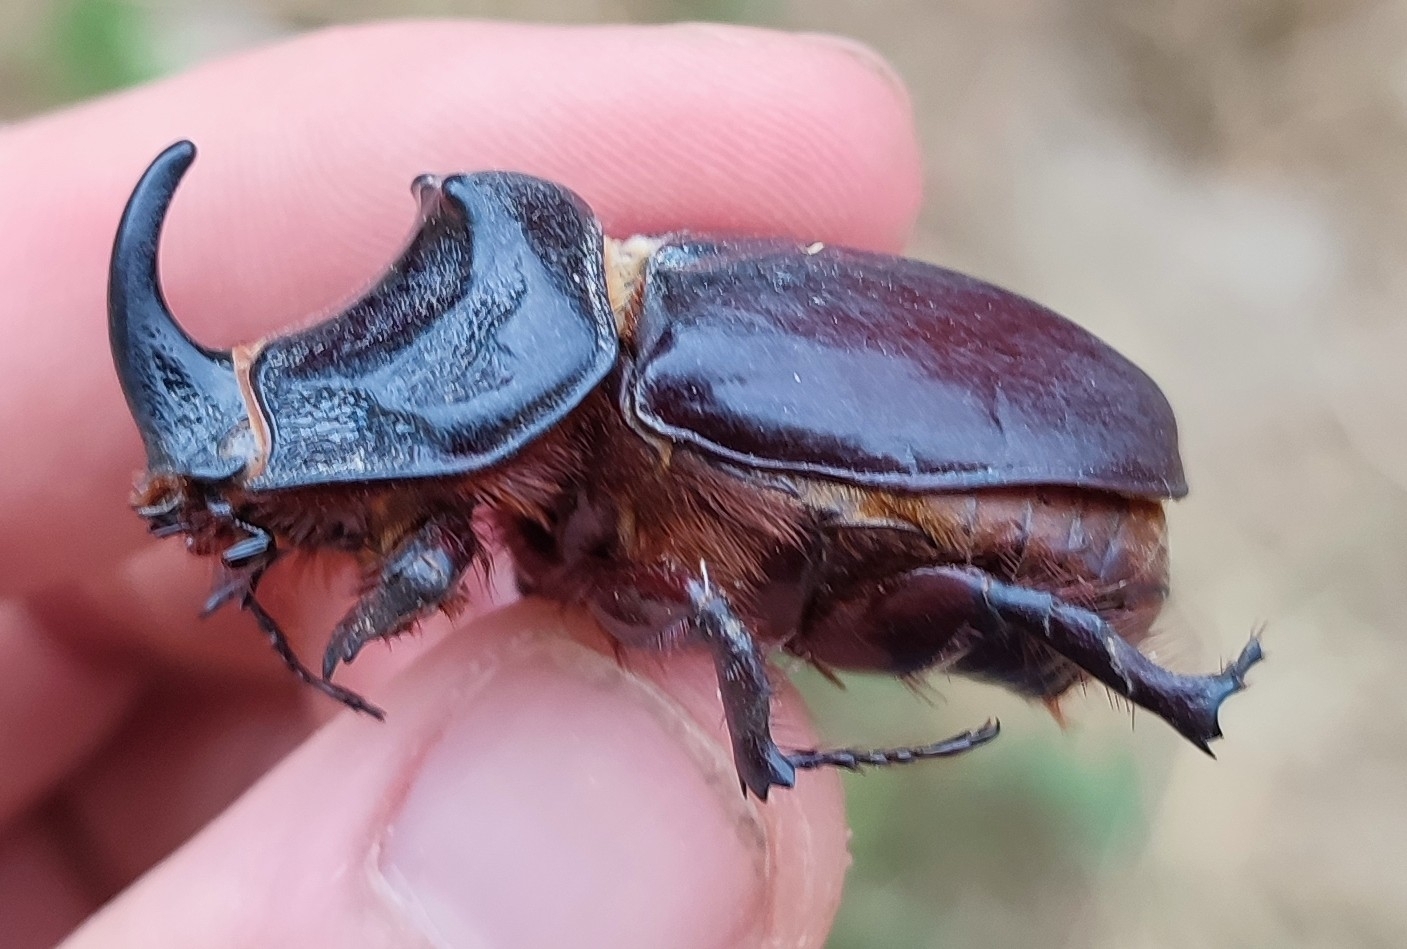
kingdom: Animalia
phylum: Arthropoda
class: Insecta
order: Coleoptera
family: Scarabaeidae
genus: Oryctes
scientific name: Oryctes nasicornis
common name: European rhinoceros beetle
